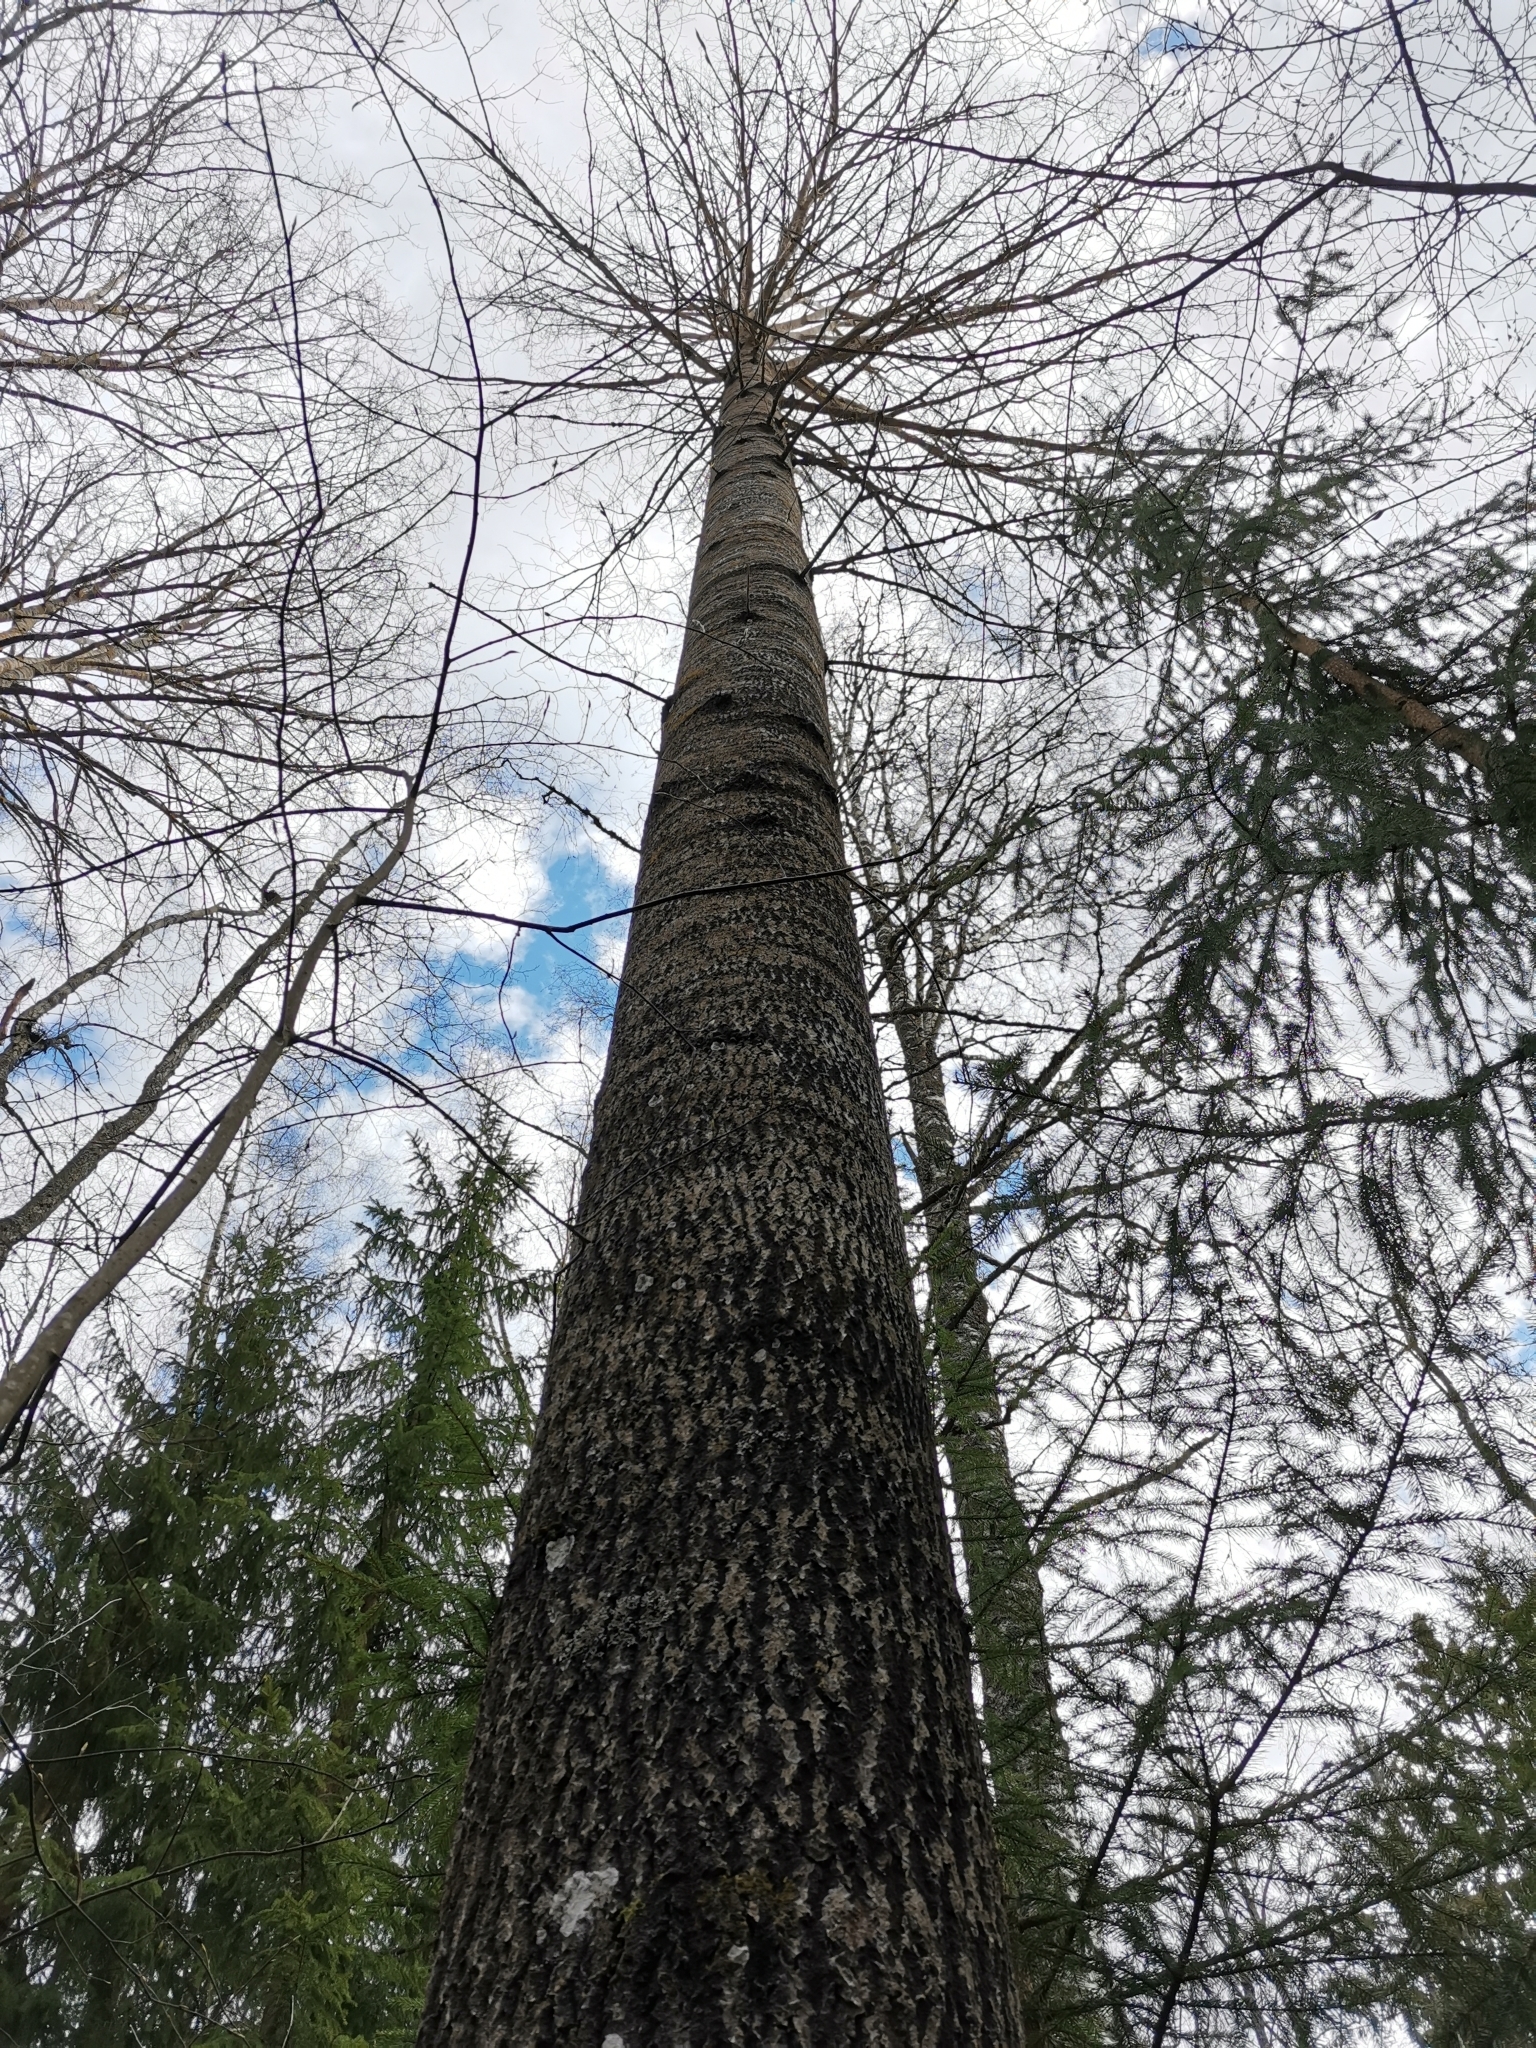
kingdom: Animalia
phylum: Chordata
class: Mammalia
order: Rodentia
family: Sciuridae
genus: Pteromys
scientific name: Pteromys volans
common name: Siberian flying squirrel
